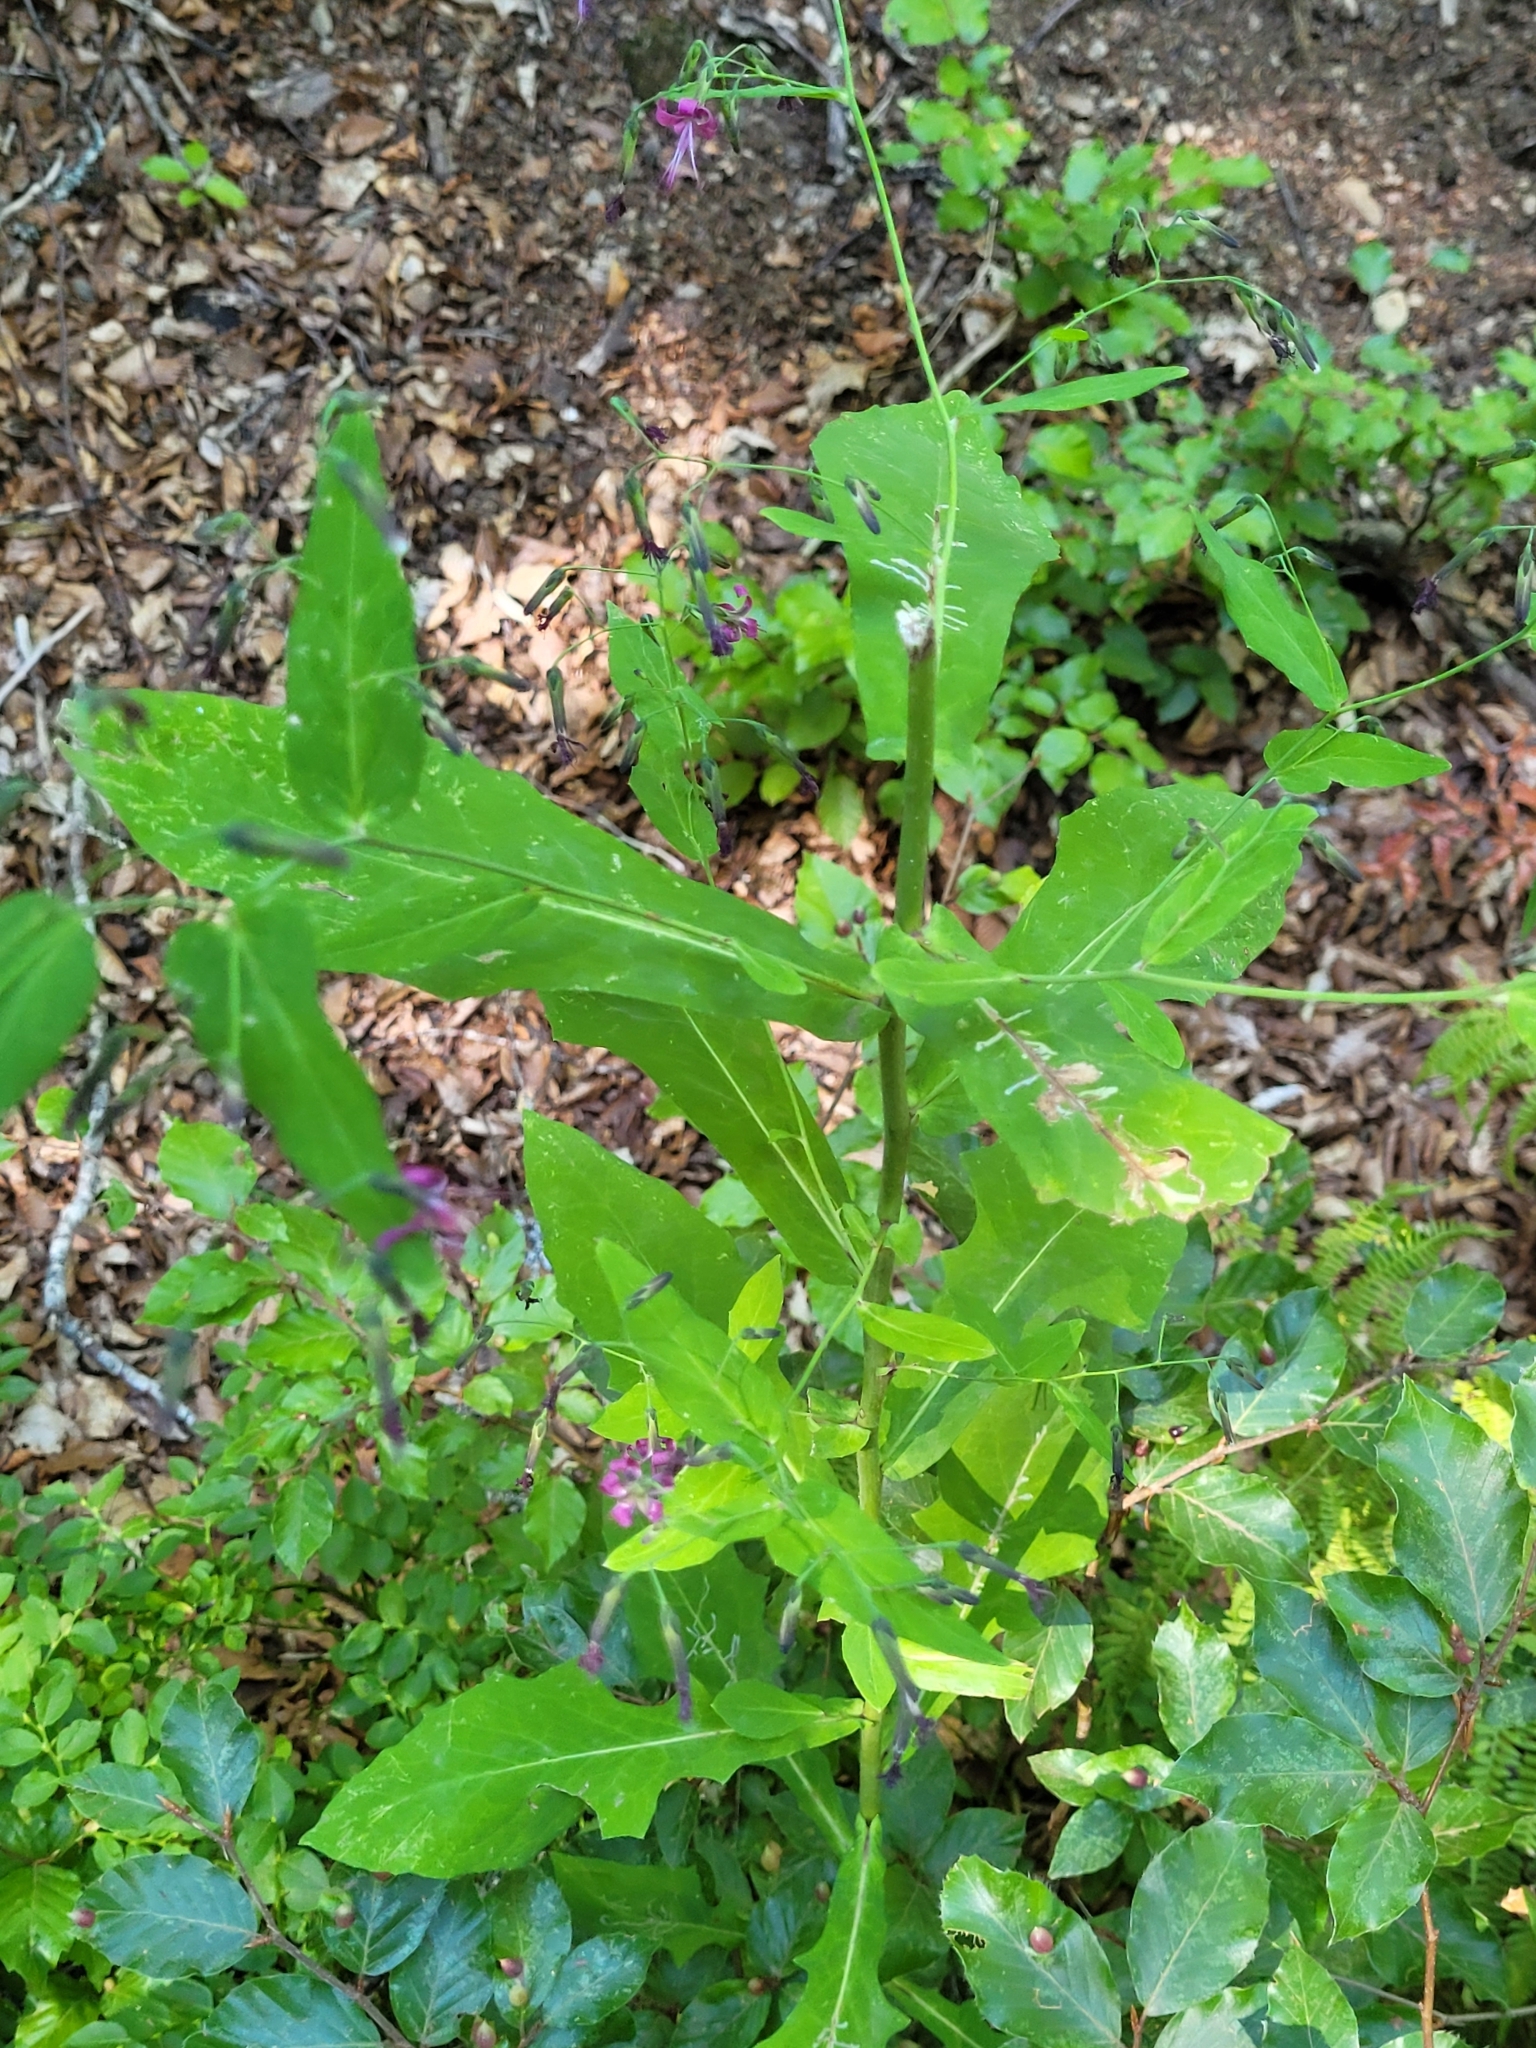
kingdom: Plantae
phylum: Tracheophyta
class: Magnoliopsida
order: Asterales
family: Asteraceae
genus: Prenanthes
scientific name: Prenanthes purpurea
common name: Purple lettuce
